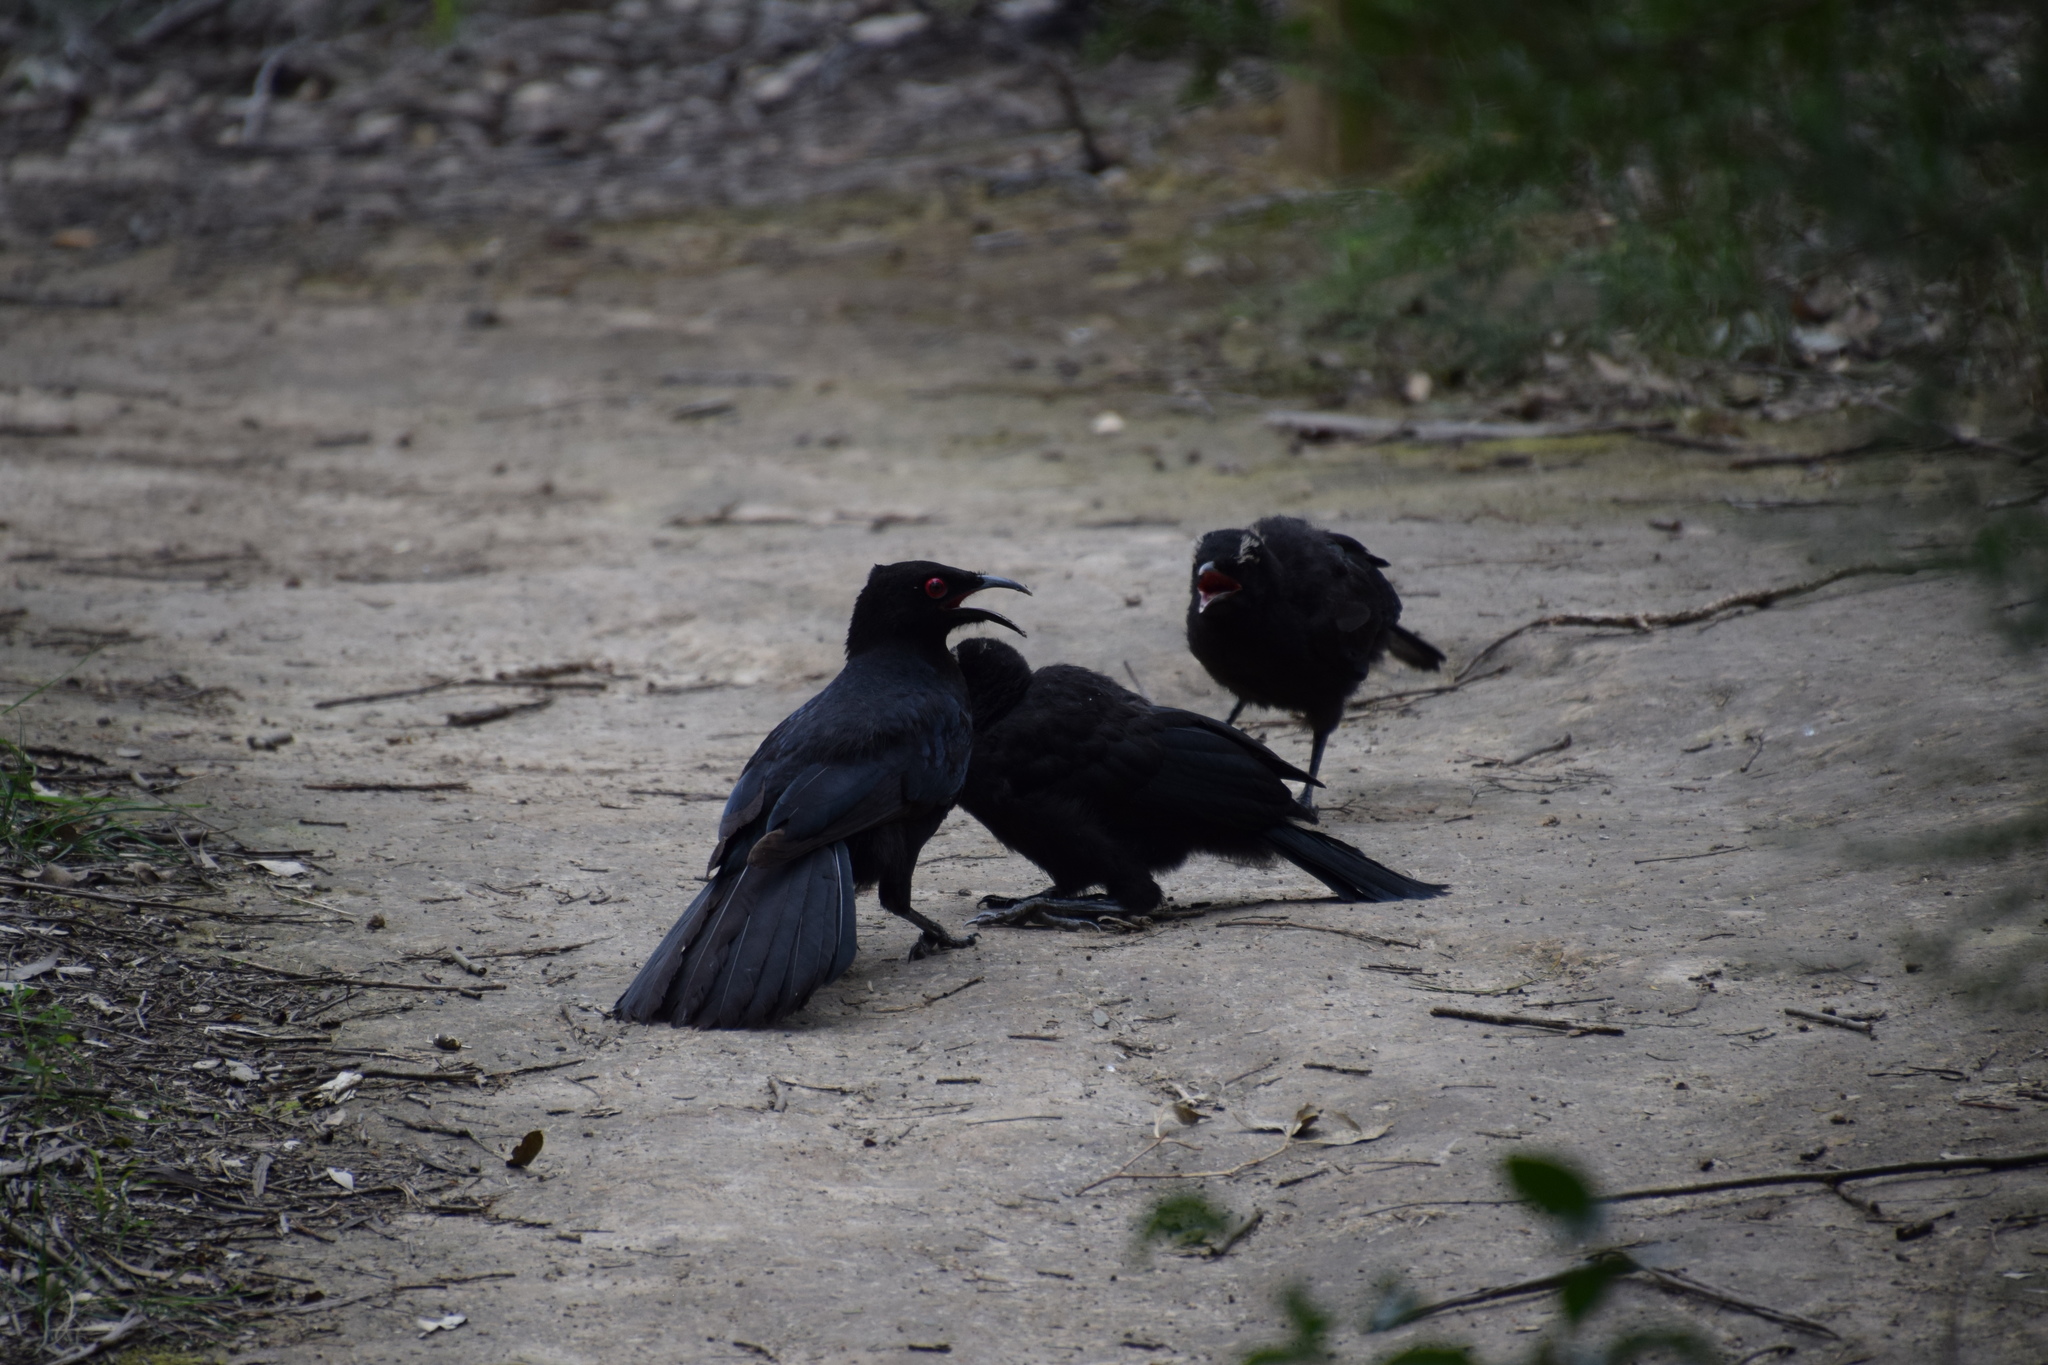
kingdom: Animalia
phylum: Chordata
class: Aves
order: Passeriformes
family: Corcoracidae
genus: Corcorax
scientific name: Corcorax melanoramphos
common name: White-winged chough
